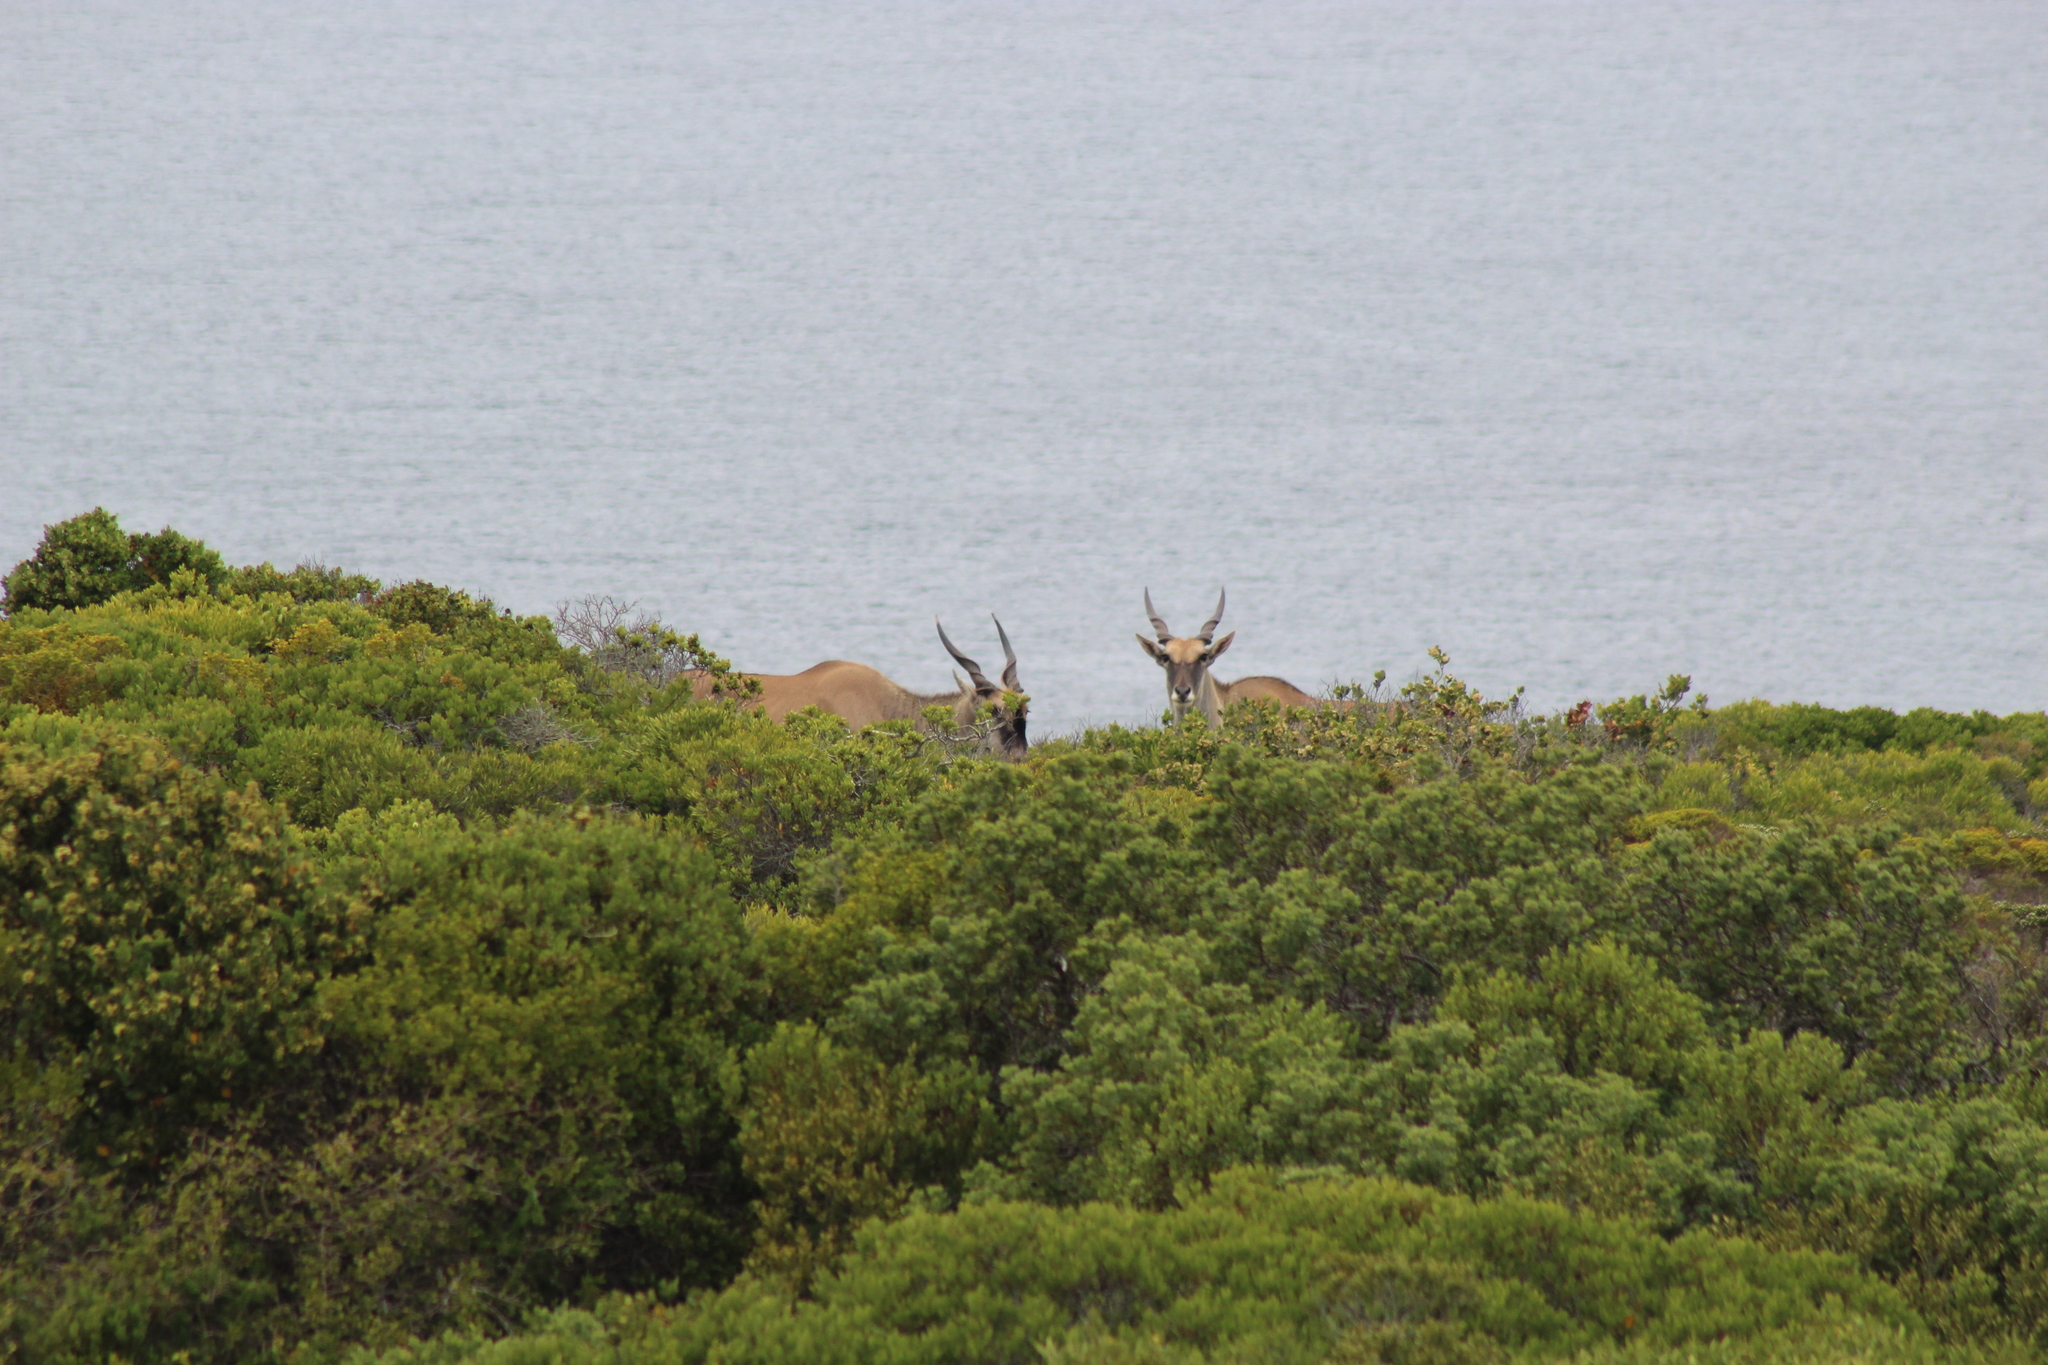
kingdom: Animalia
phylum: Chordata
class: Mammalia
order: Artiodactyla
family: Bovidae
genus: Taurotragus
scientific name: Taurotragus oryx
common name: Common eland
